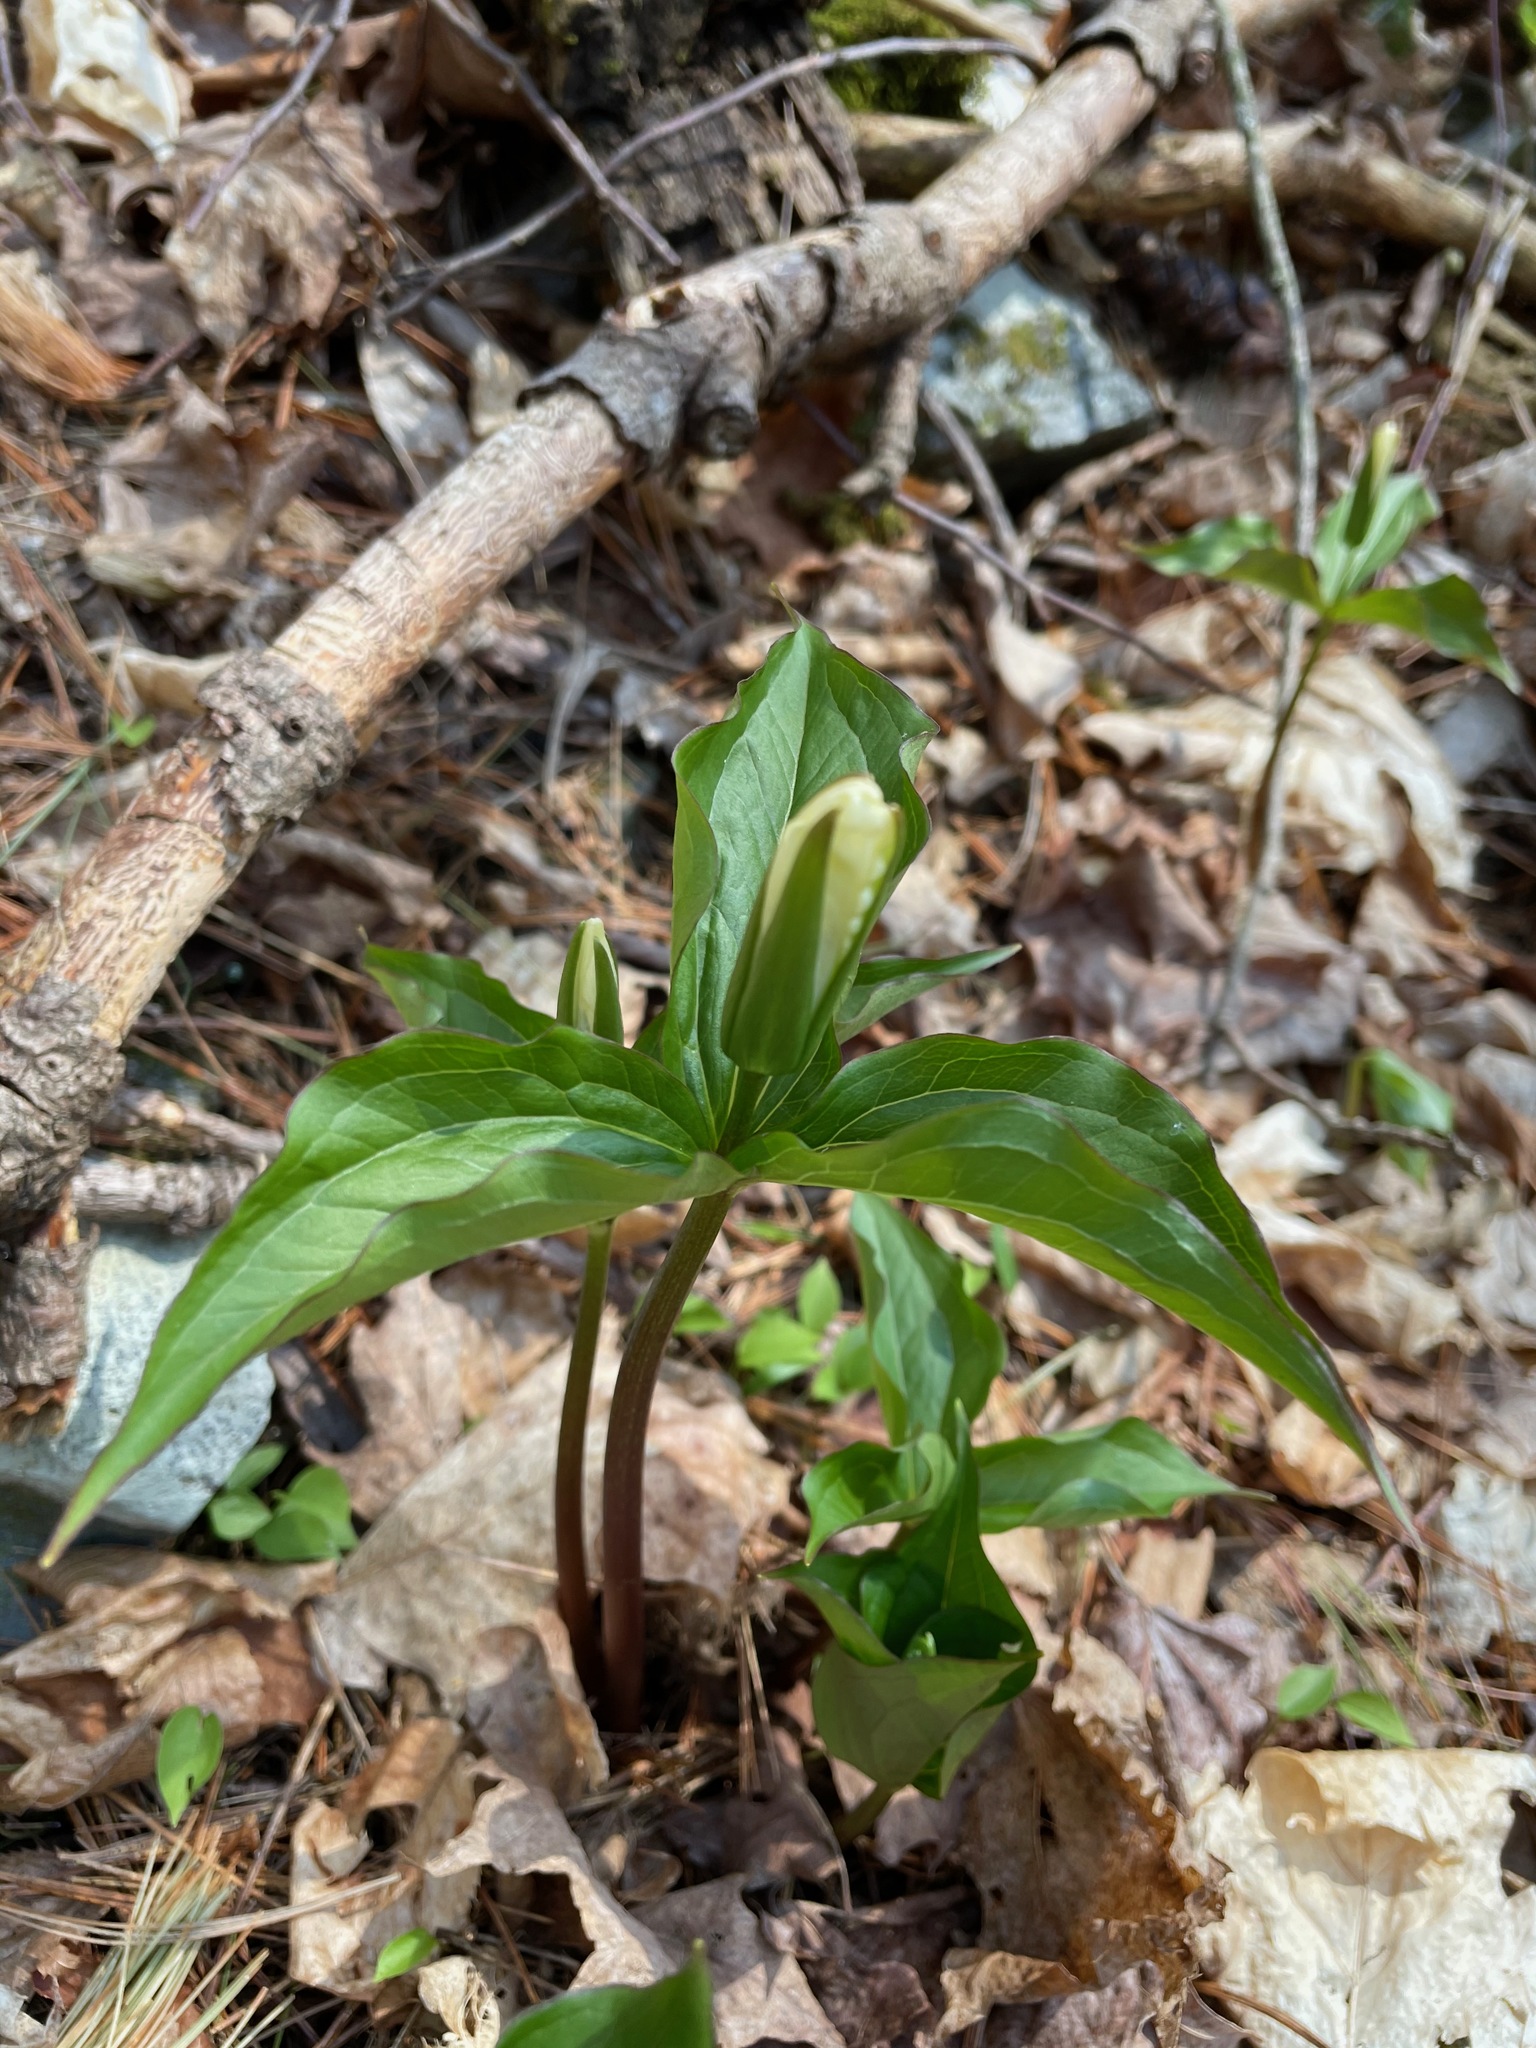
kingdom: Plantae
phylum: Tracheophyta
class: Liliopsida
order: Liliales
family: Melanthiaceae
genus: Trillium
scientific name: Trillium grandiflorum
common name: Great white trillium
